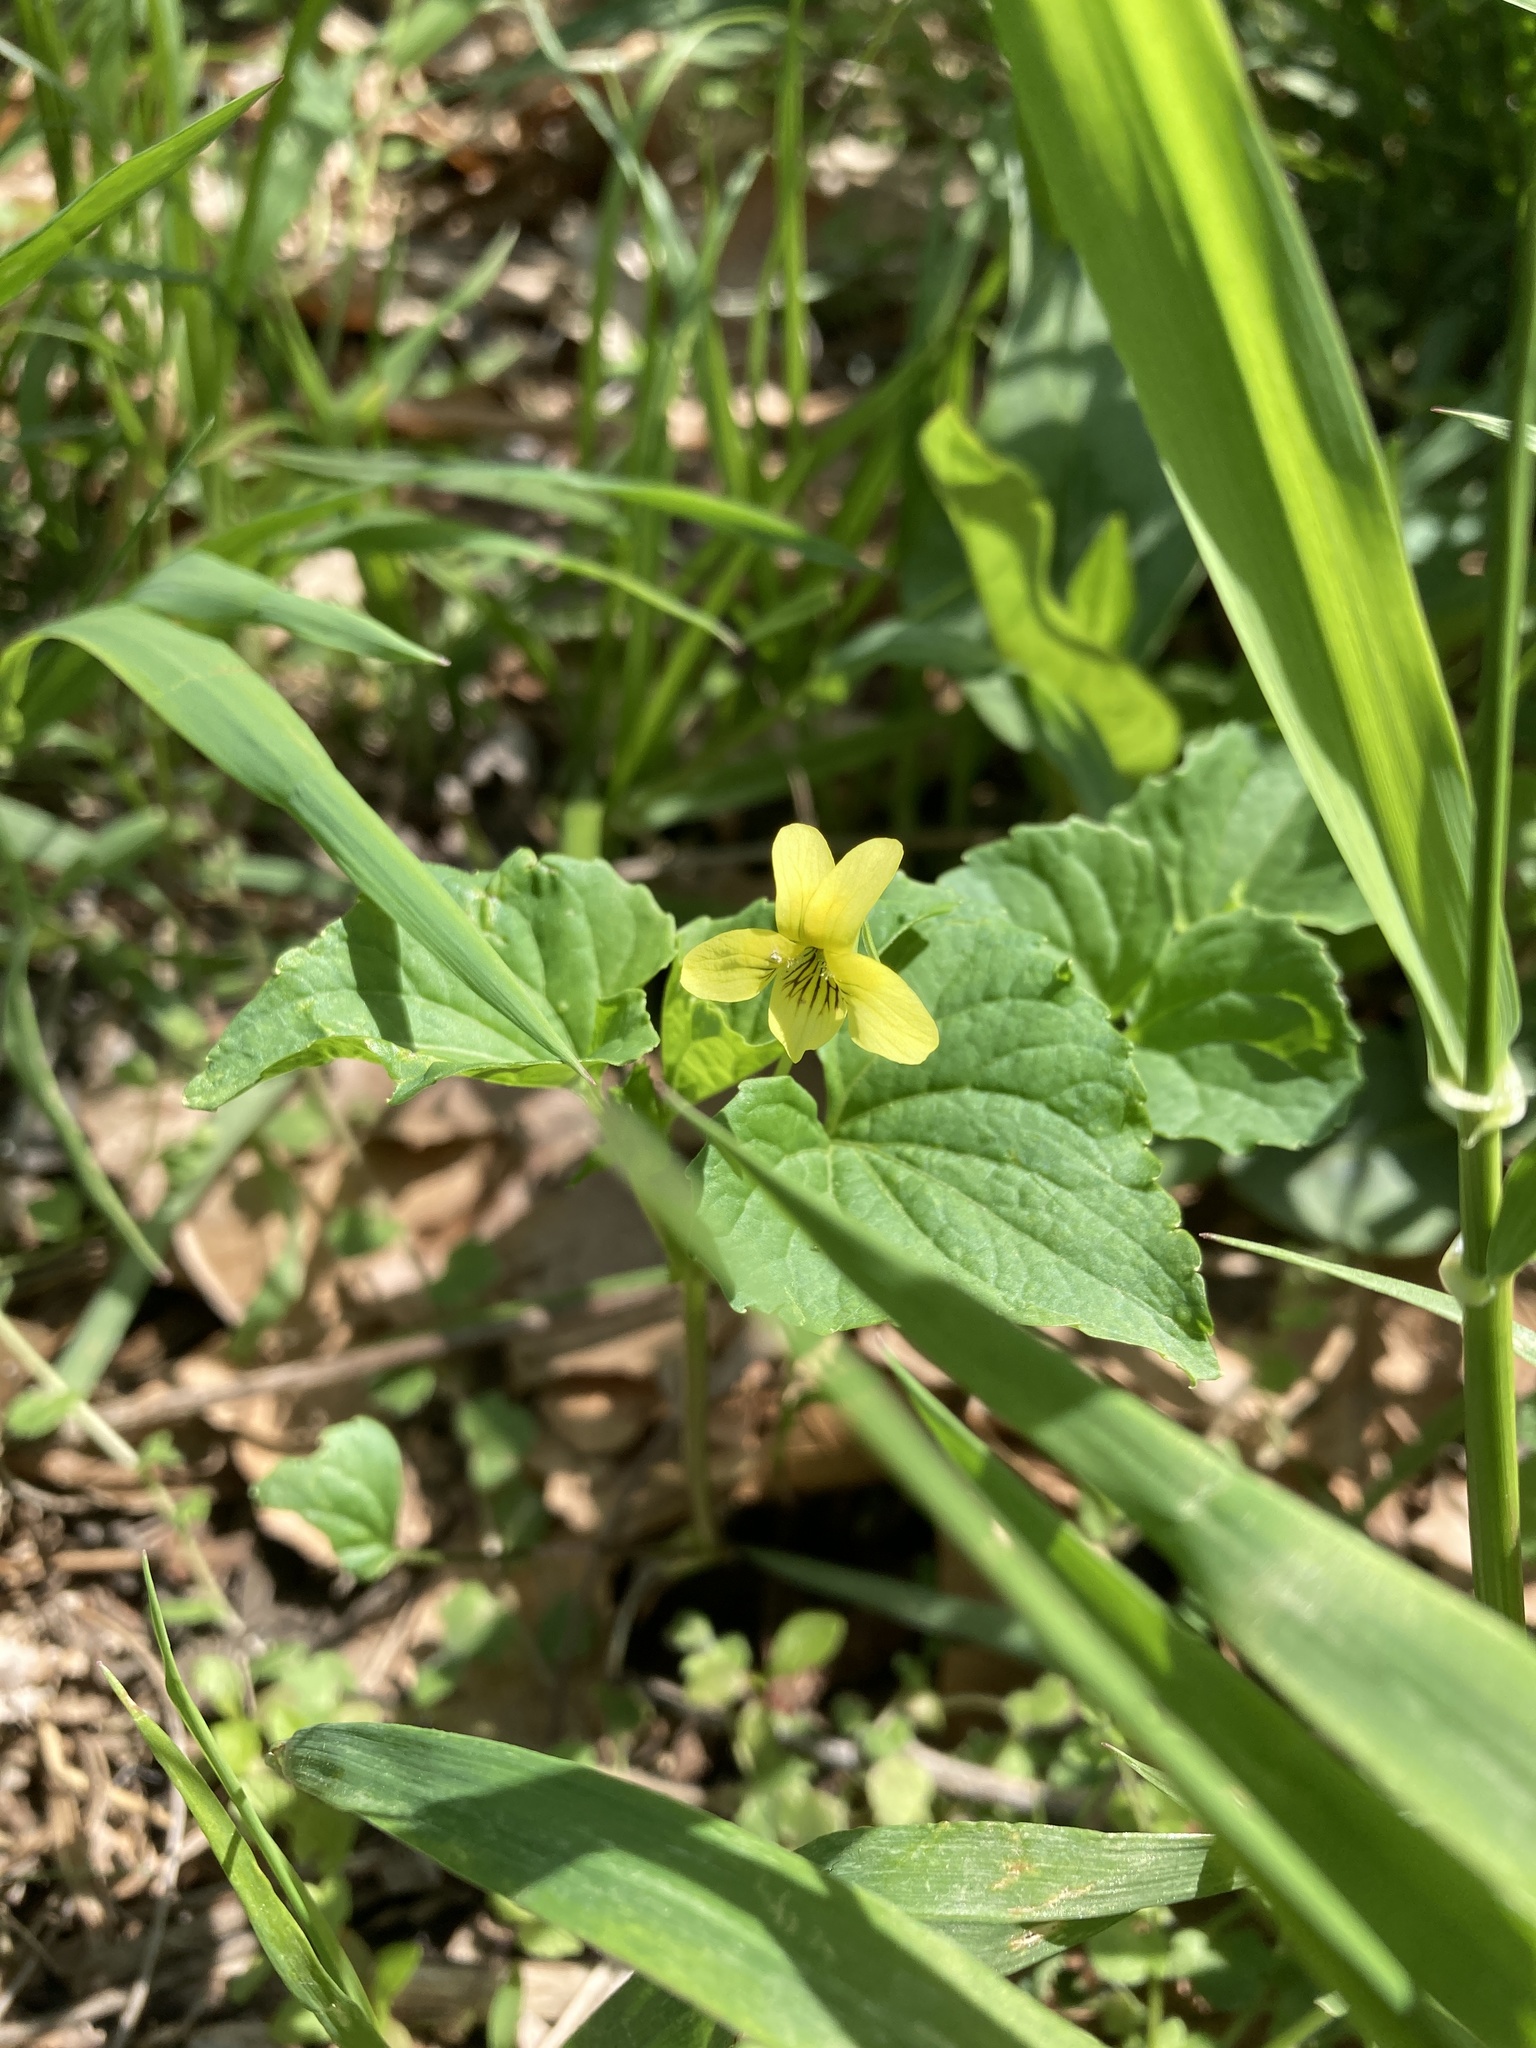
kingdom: Plantae
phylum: Tracheophyta
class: Magnoliopsida
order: Malpighiales
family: Violaceae
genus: Viola
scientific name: Viola eriocarpa
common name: Smooth yellow violet
